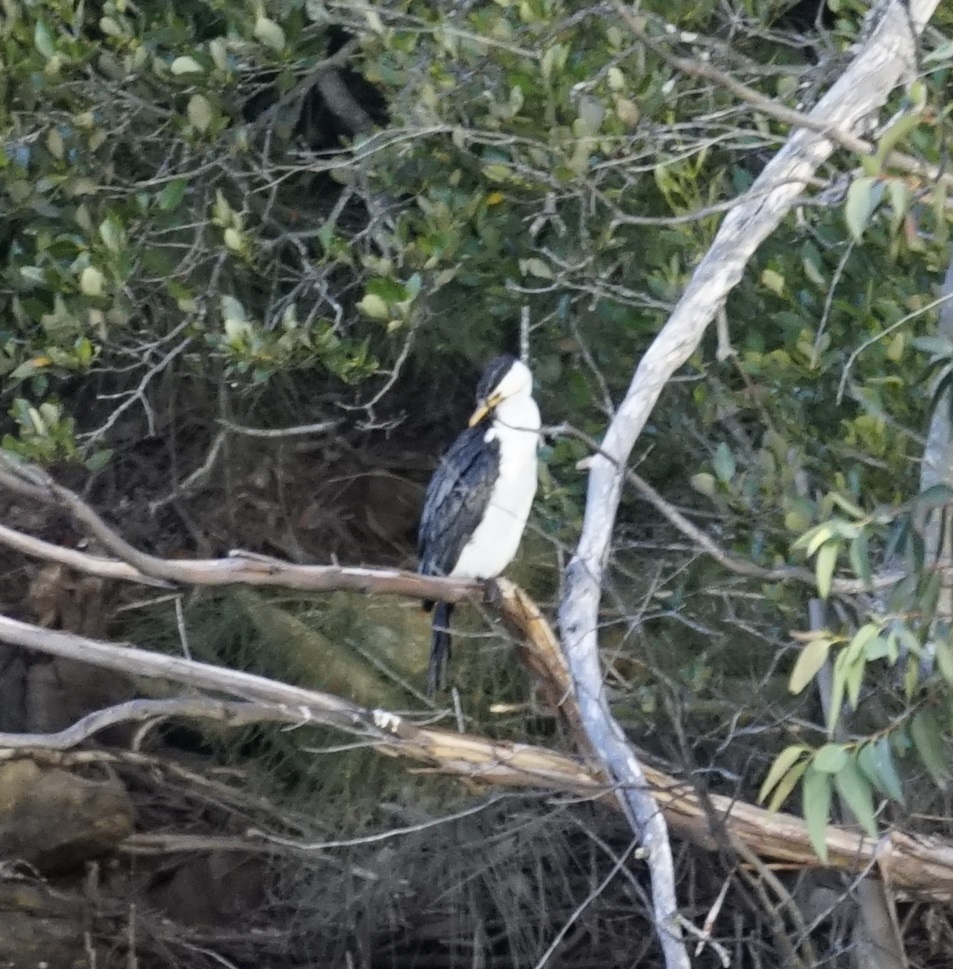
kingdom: Animalia
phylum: Chordata
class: Aves
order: Suliformes
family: Phalacrocoracidae
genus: Microcarbo
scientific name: Microcarbo melanoleucos
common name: Little pied cormorant
